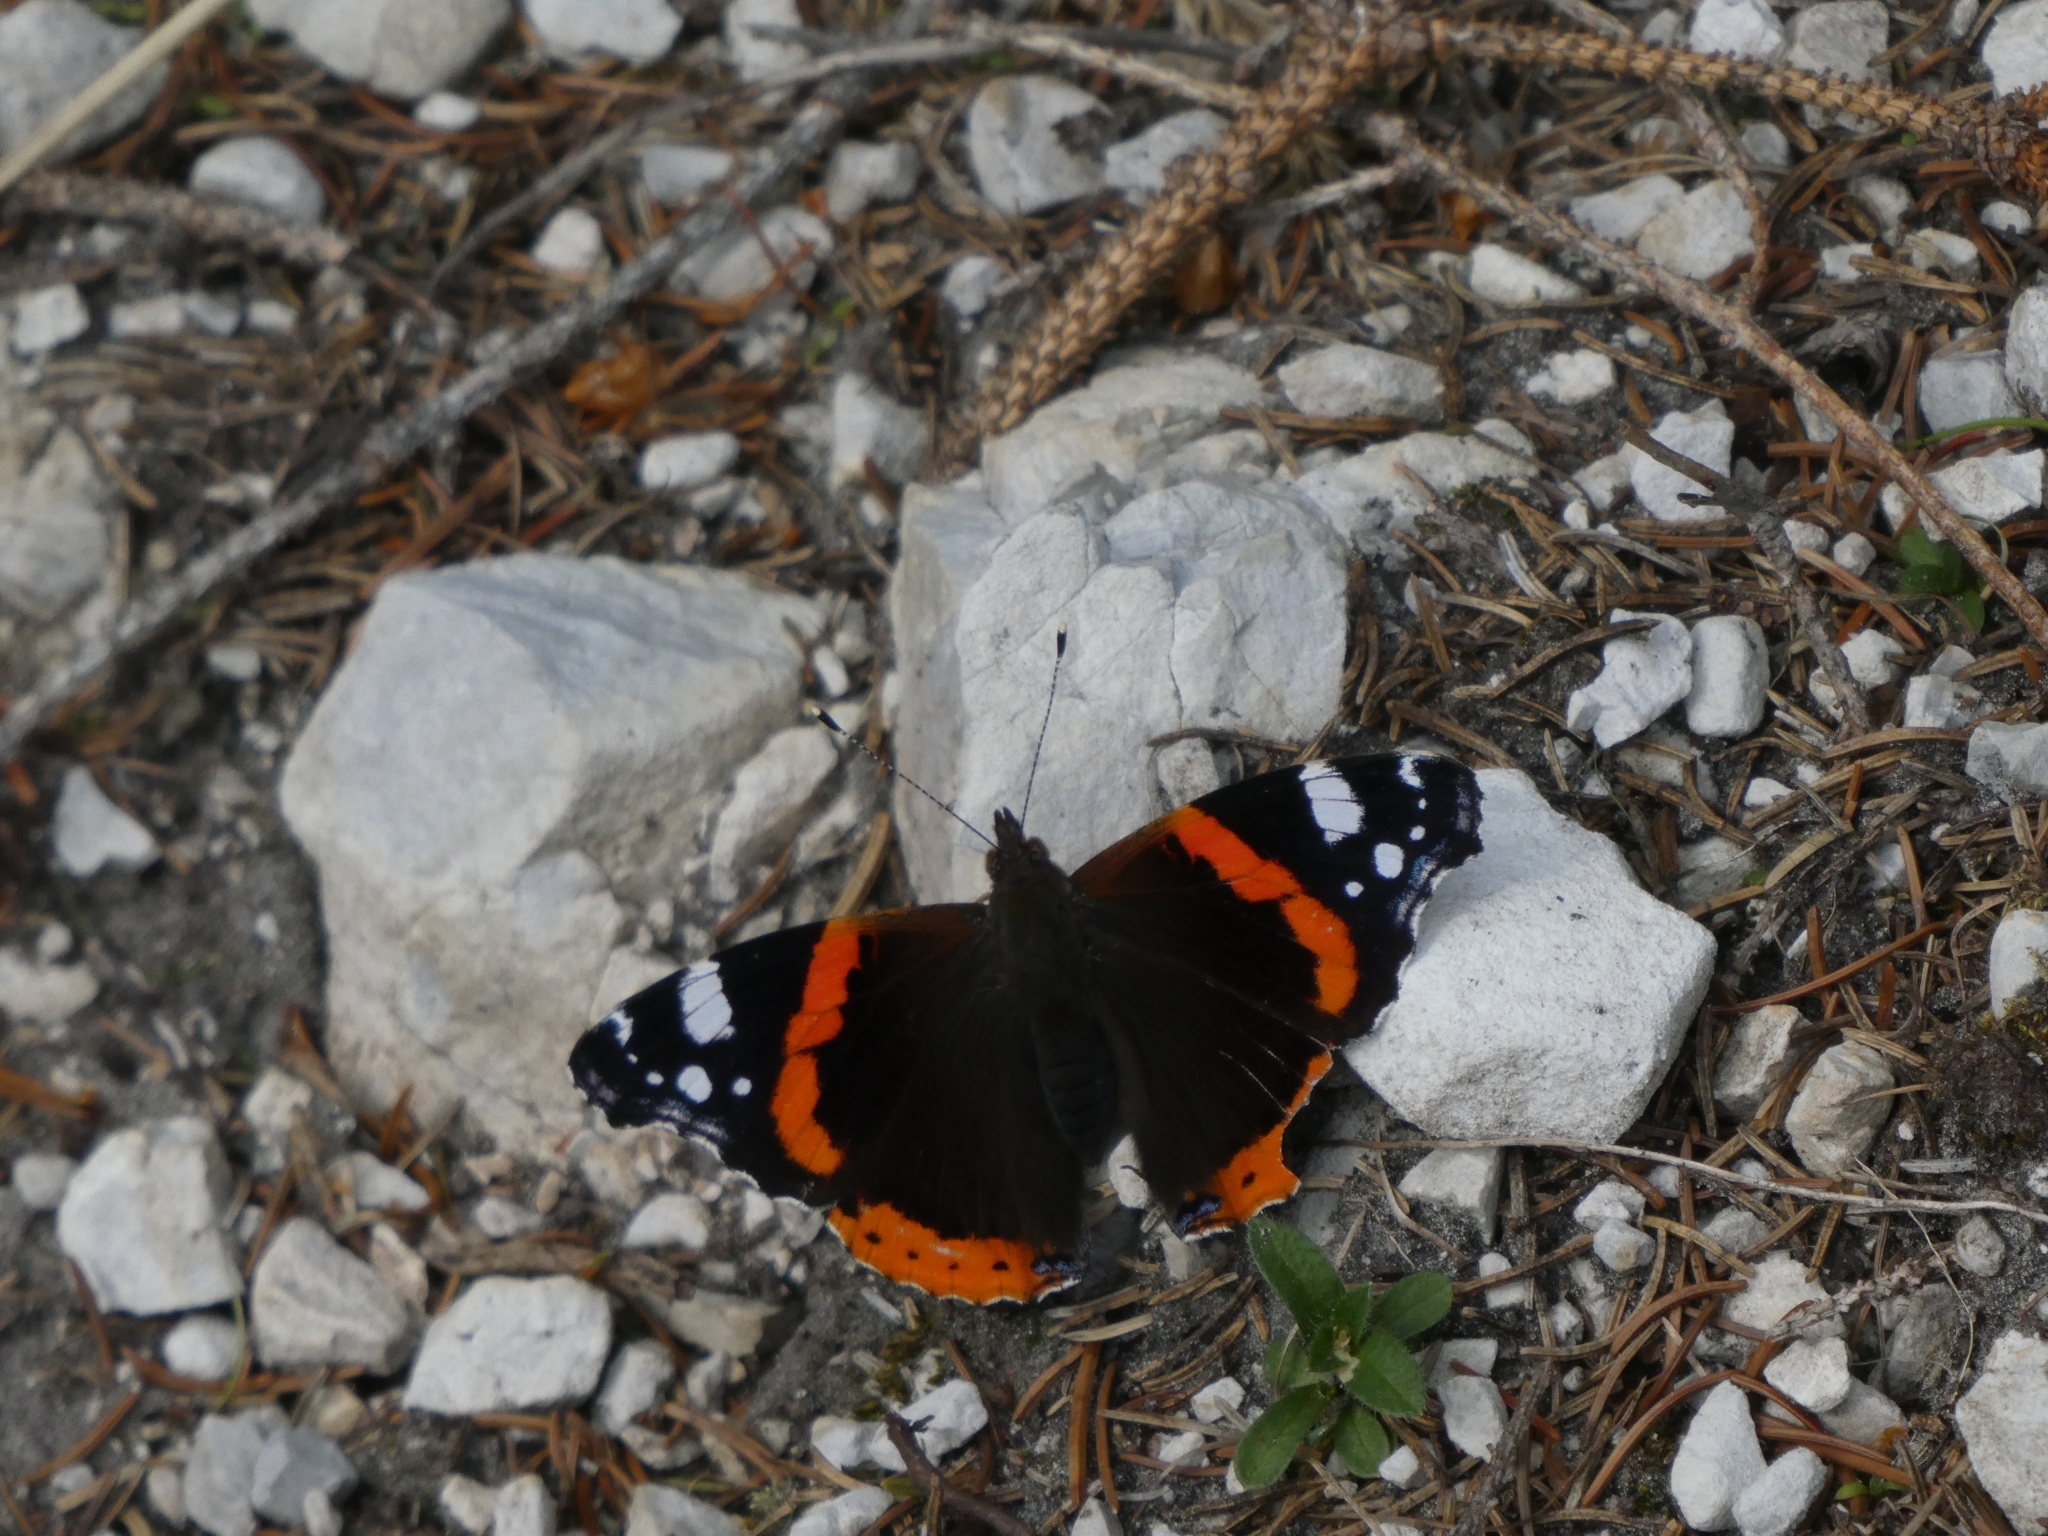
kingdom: Animalia
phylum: Arthropoda
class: Insecta
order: Lepidoptera
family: Nymphalidae
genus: Vanessa
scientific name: Vanessa atalanta
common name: Red admiral
